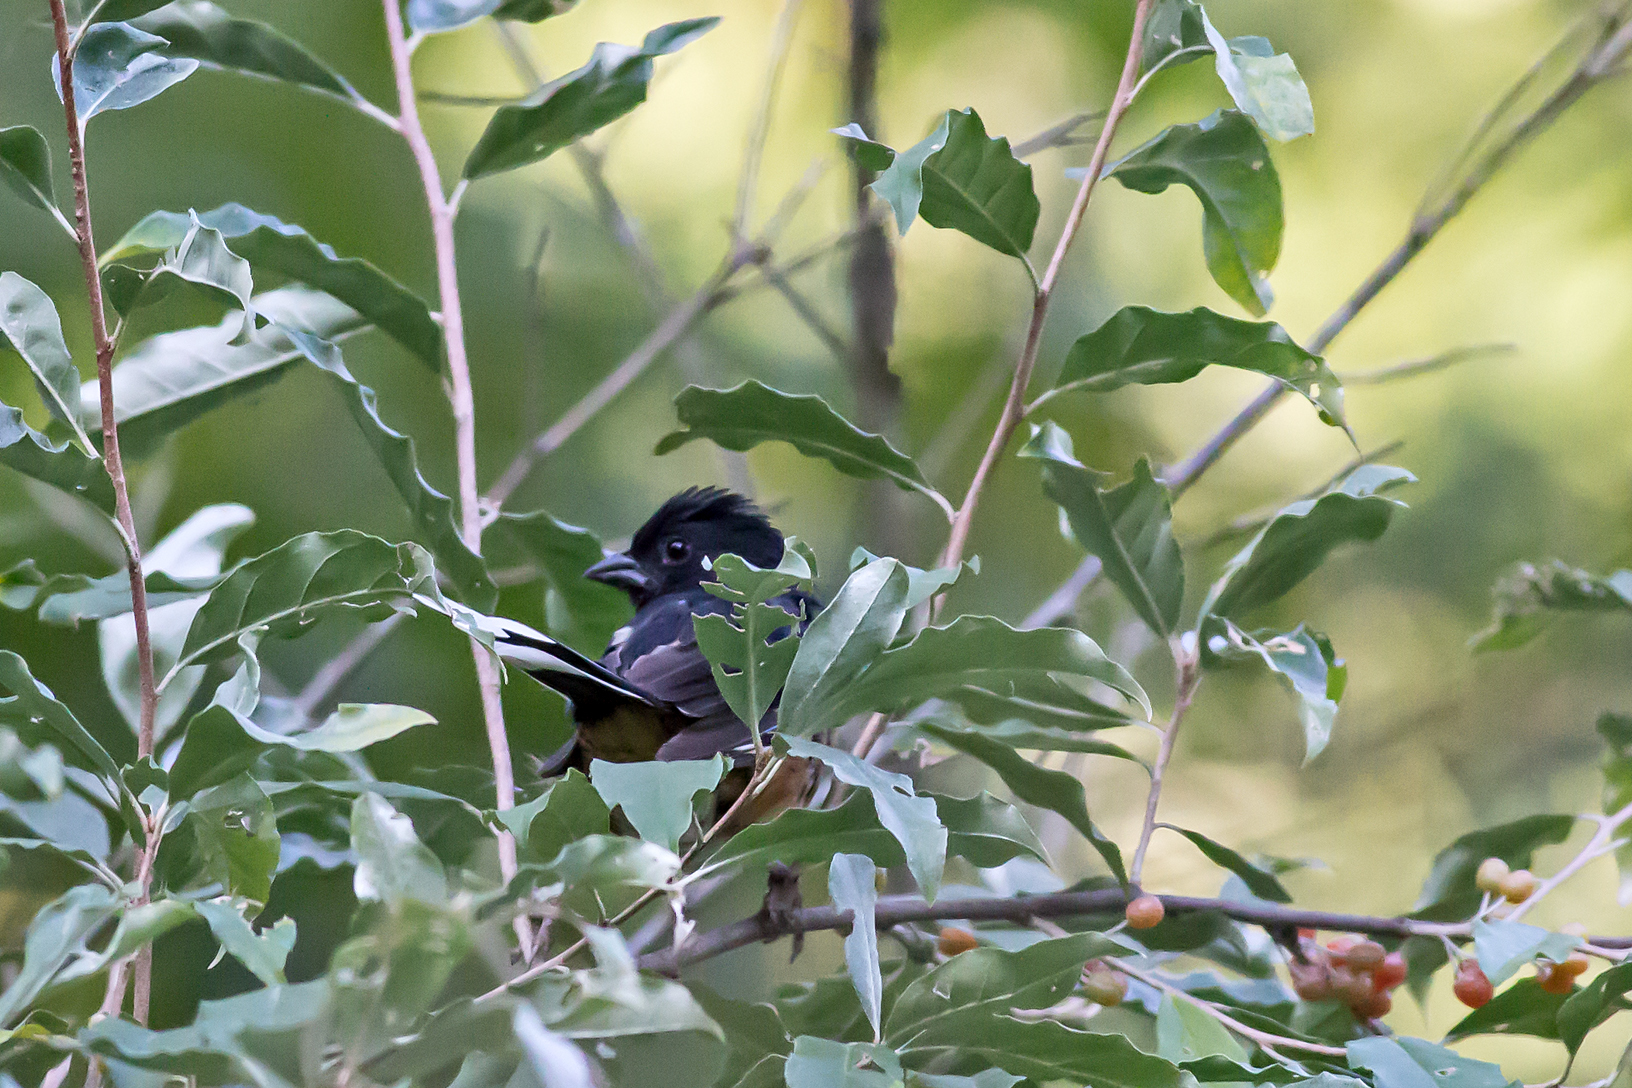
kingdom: Animalia
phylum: Chordata
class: Aves
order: Passeriformes
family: Passerellidae
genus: Pipilo
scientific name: Pipilo erythrophthalmus
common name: Eastern towhee
